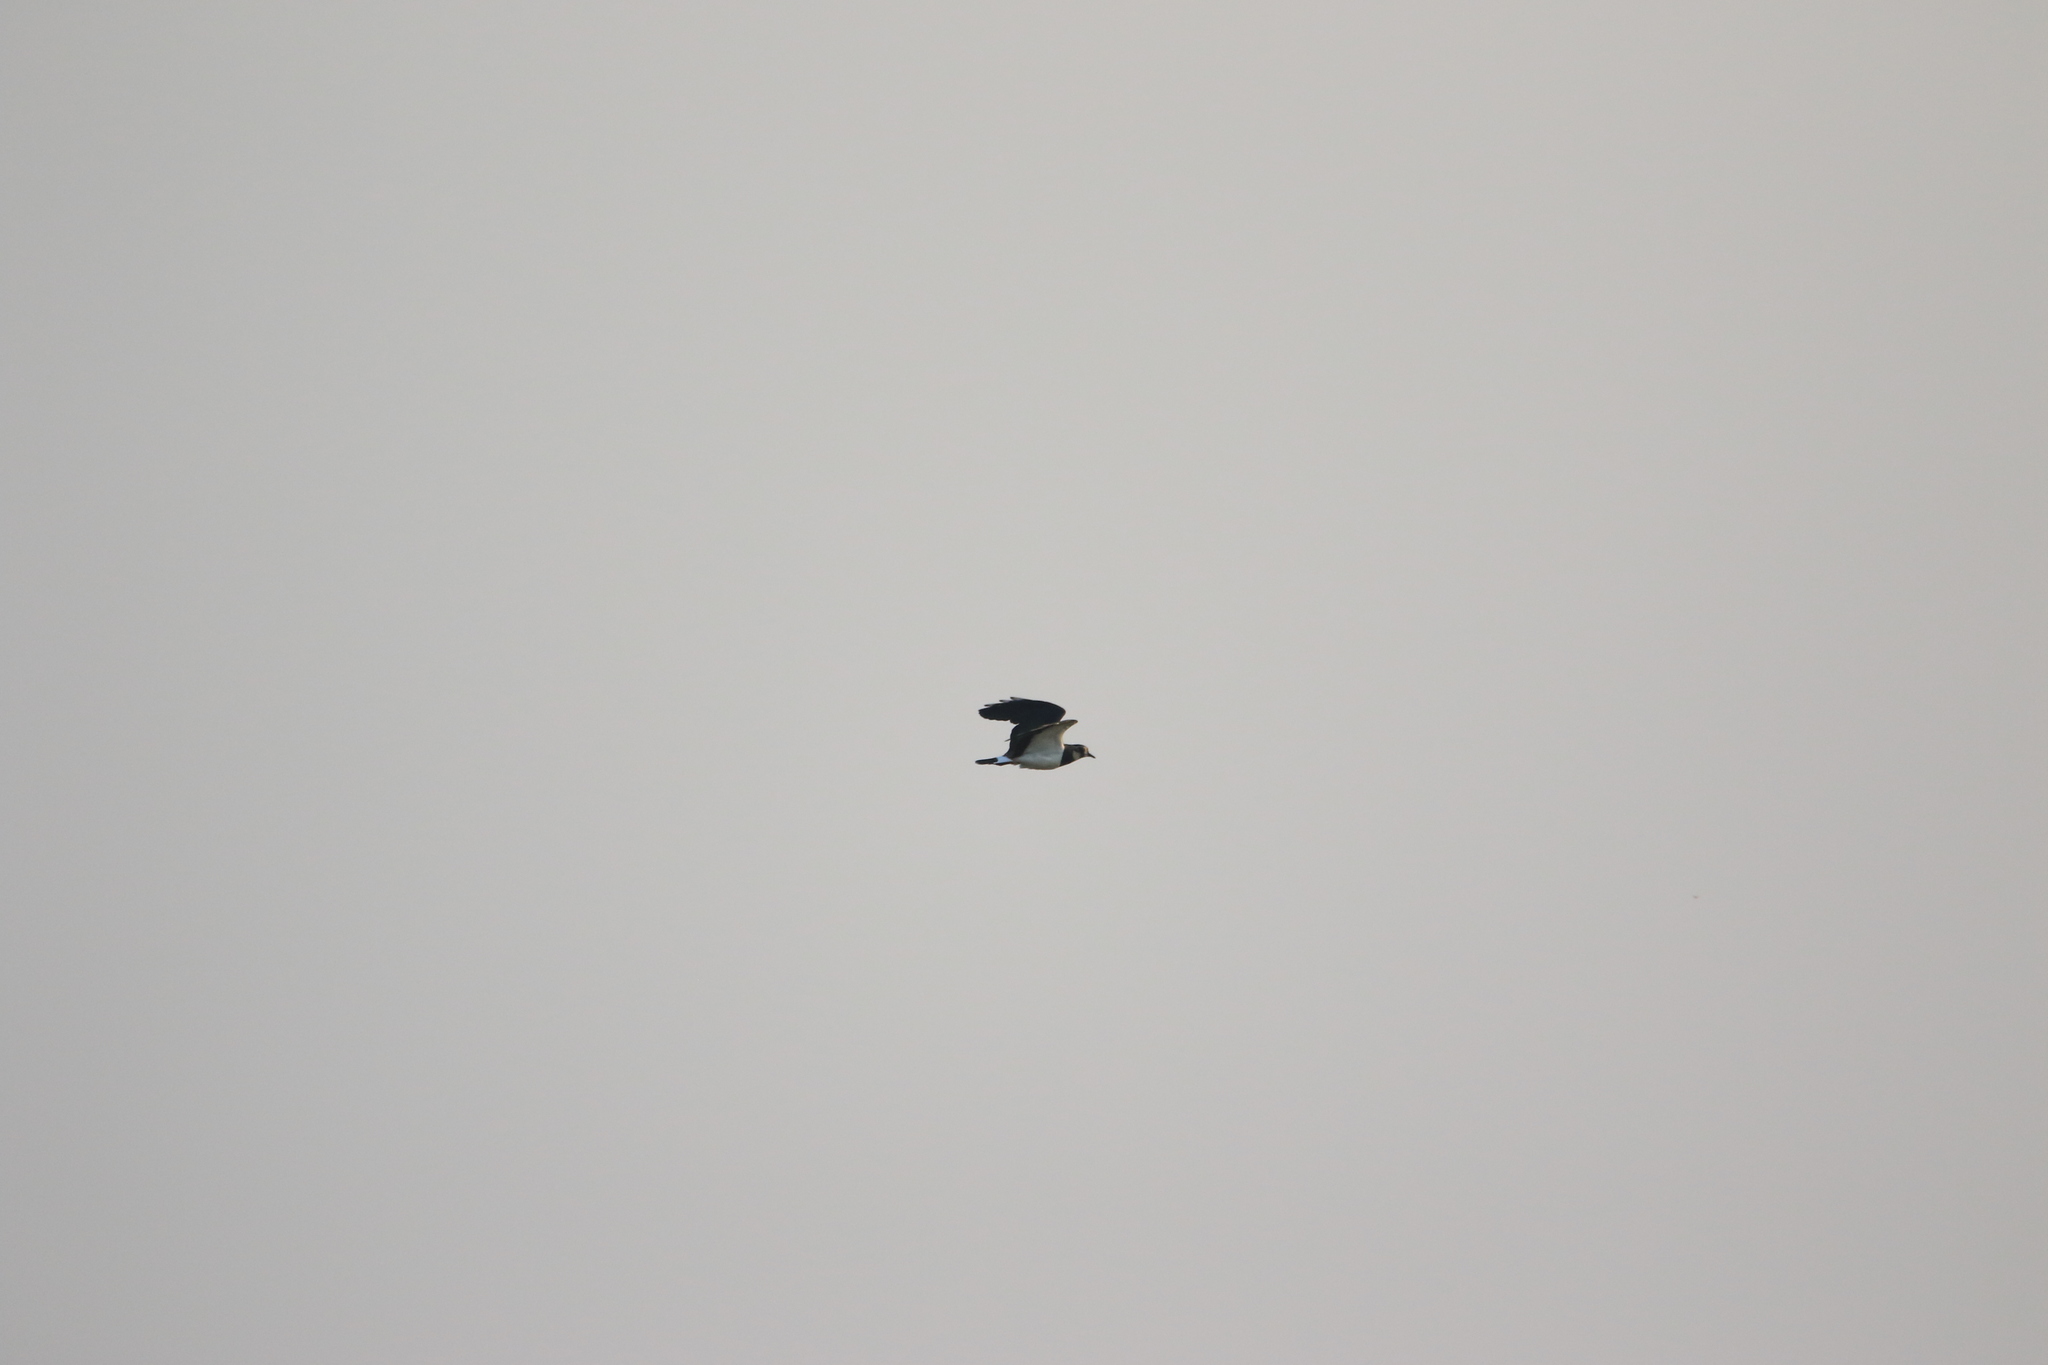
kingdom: Animalia
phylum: Chordata
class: Aves
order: Charadriiformes
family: Charadriidae
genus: Vanellus
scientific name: Vanellus vanellus
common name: Northern lapwing
